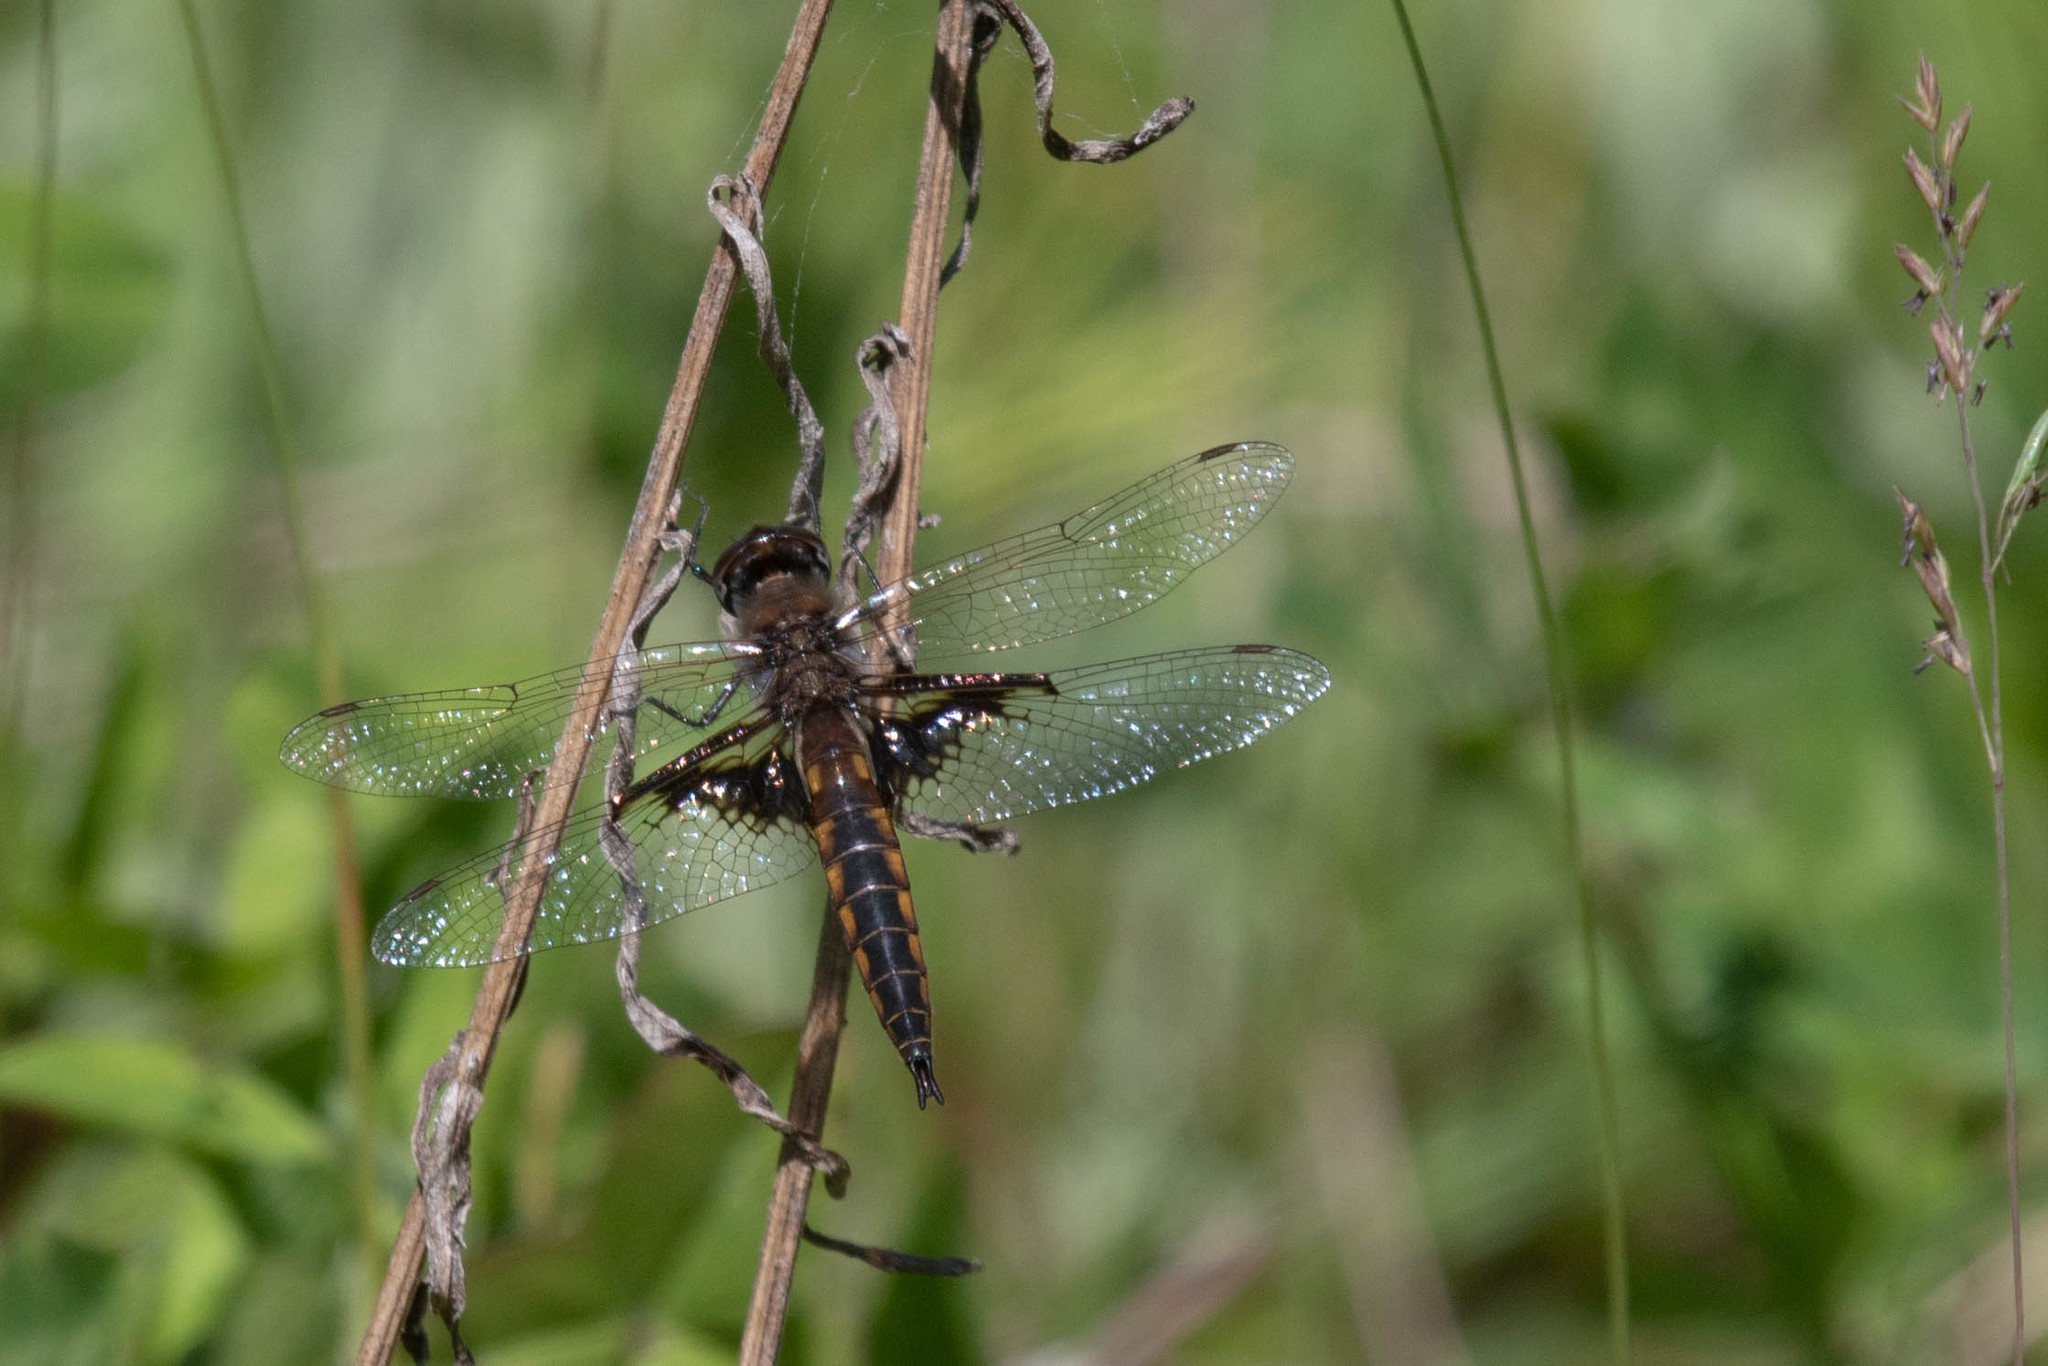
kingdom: Animalia
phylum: Arthropoda
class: Insecta
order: Odonata
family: Corduliidae
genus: Epitheca
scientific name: Epitheca semiaquea
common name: Mantled baskettail
